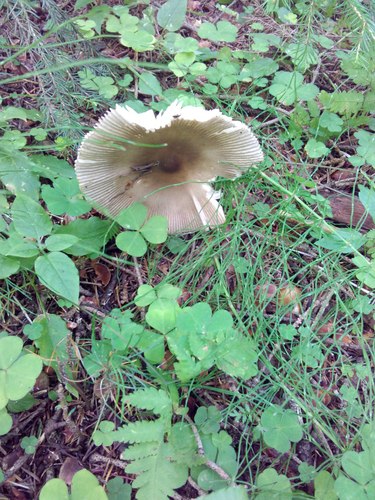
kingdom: Fungi
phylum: Basidiomycota
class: Agaricomycetes
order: Agaricales
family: Amanitaceae
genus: Amanita
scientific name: Amanita battarrae
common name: Banded amanita
